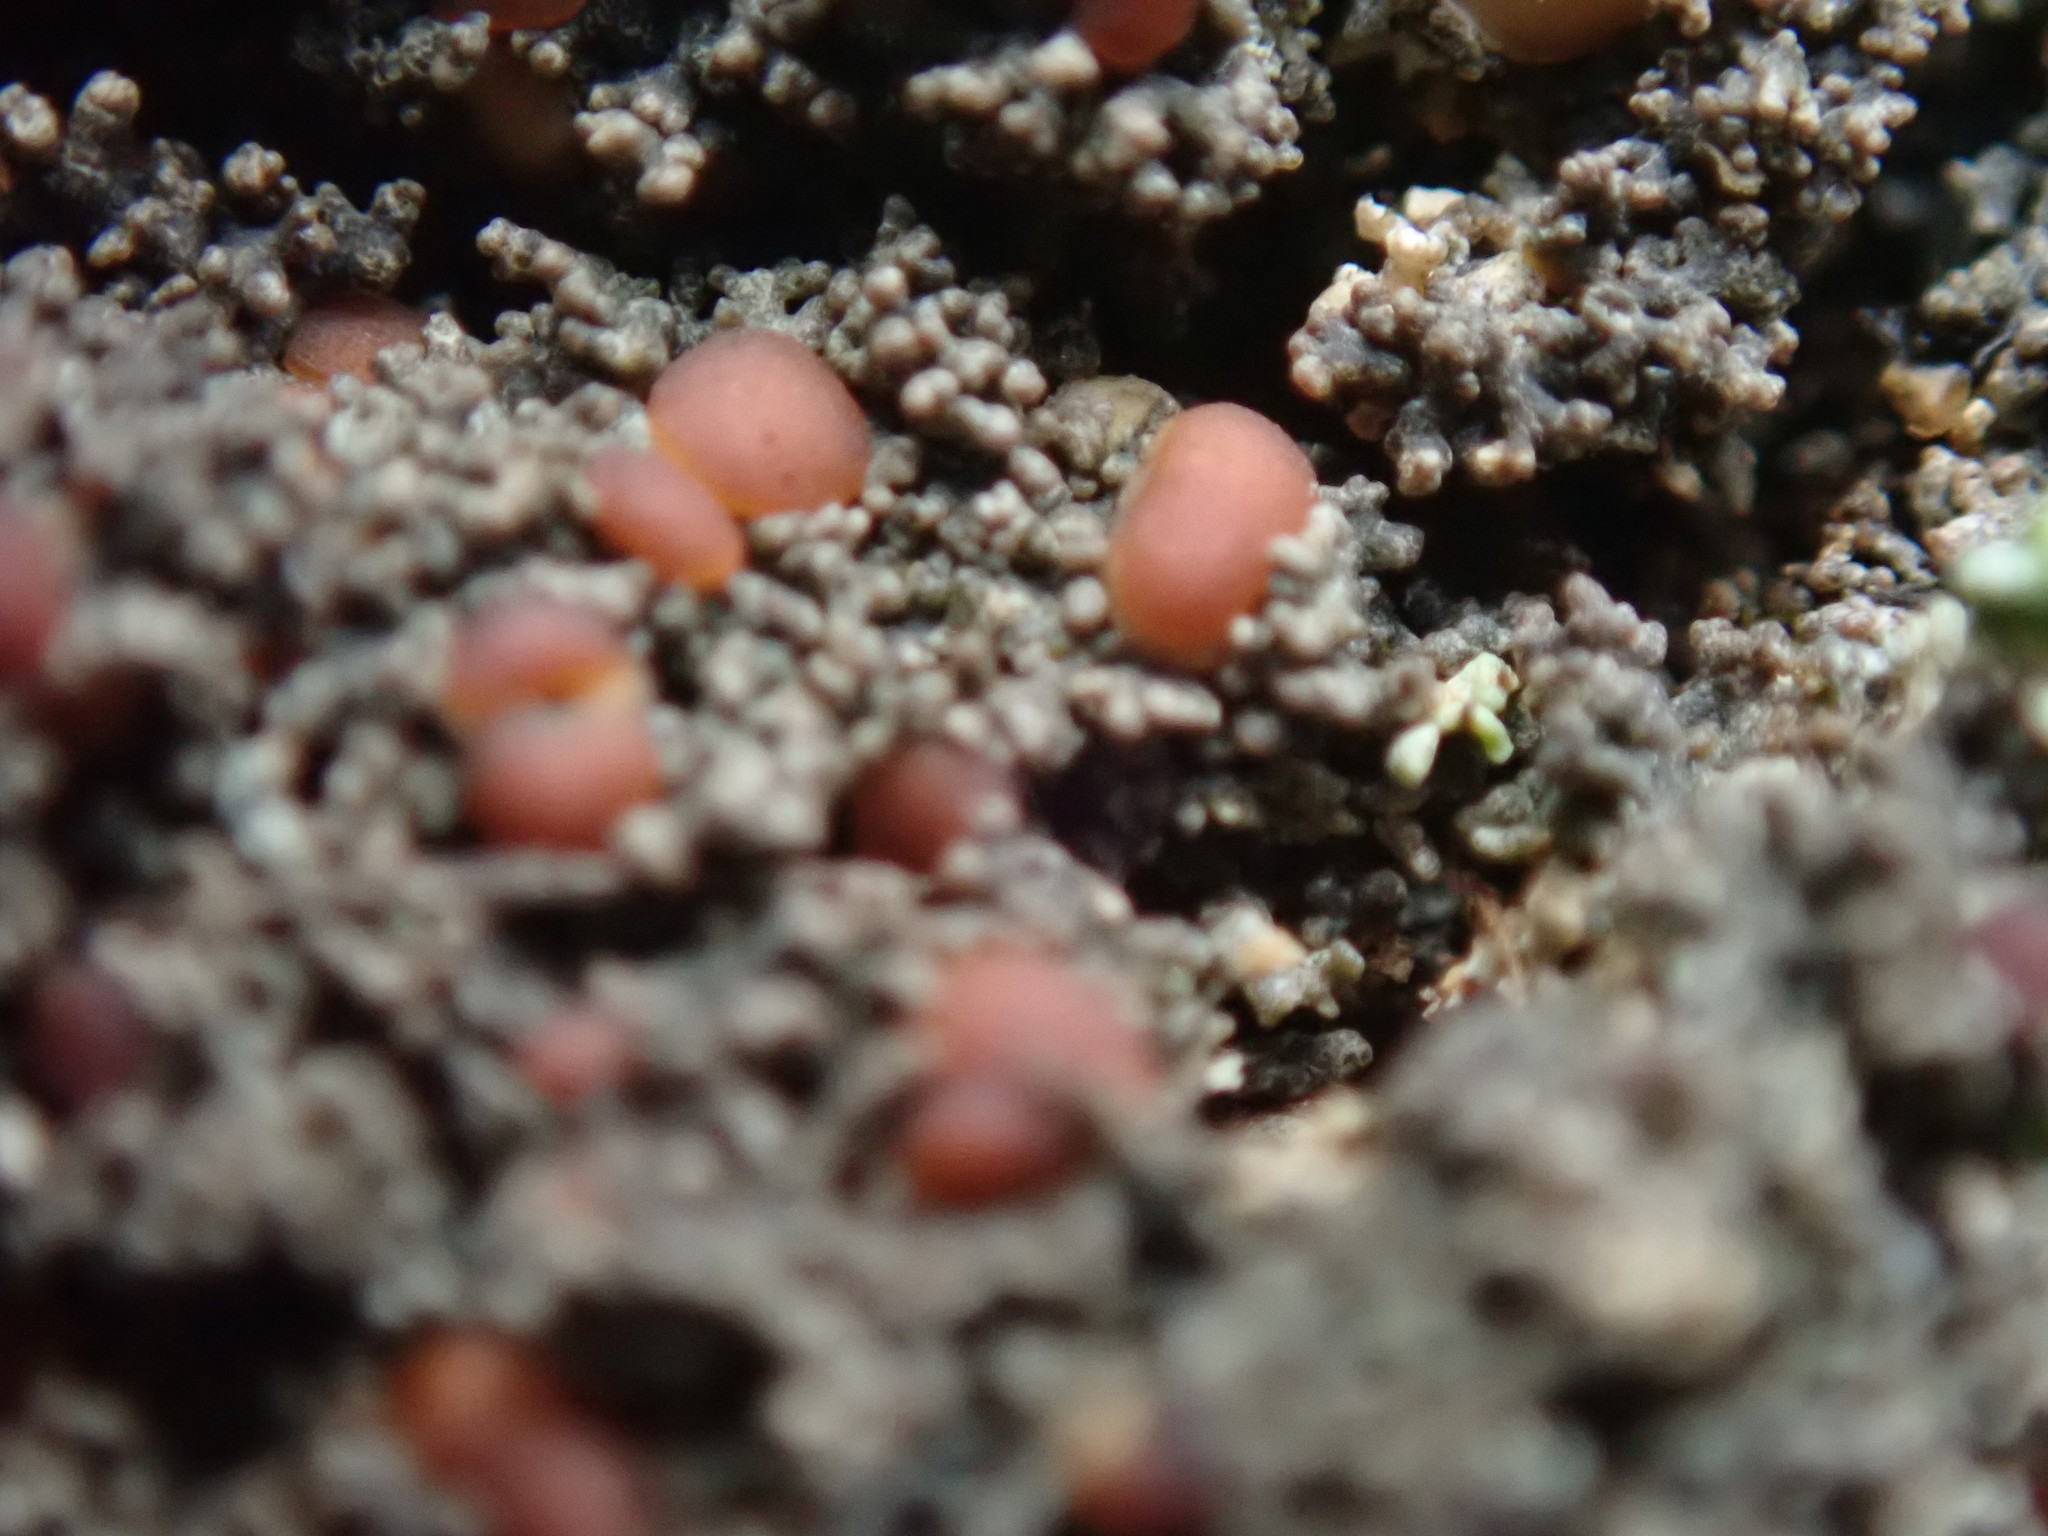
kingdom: Fungi
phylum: Ascomycota
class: Lecanoromycetes
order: Peltigerales
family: Pannariaceae
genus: Fuscopannaria
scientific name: Fuscopannaria maritima
